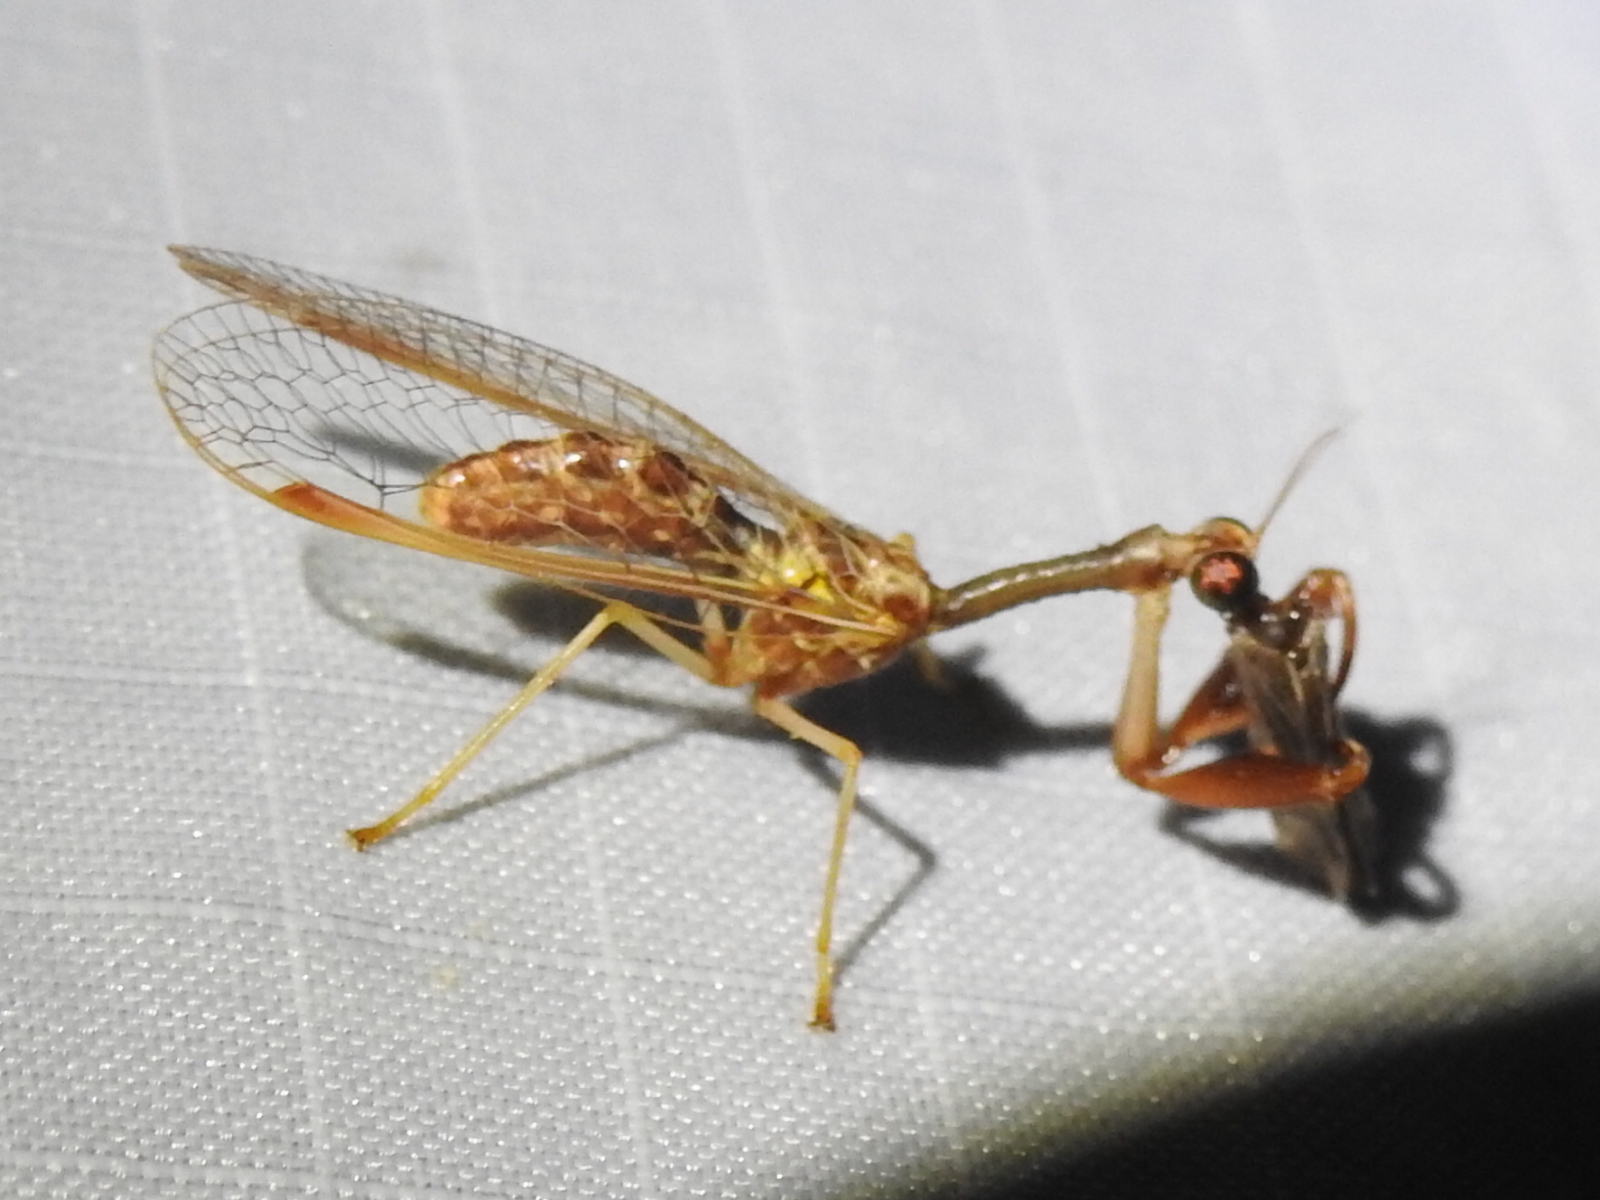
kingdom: Animalia
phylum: Arthropoda
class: Insecta
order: Neuroptera
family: Mantispidae
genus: Dicromantispa
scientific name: Dicromantispa sayi
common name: Say's mantidfly
